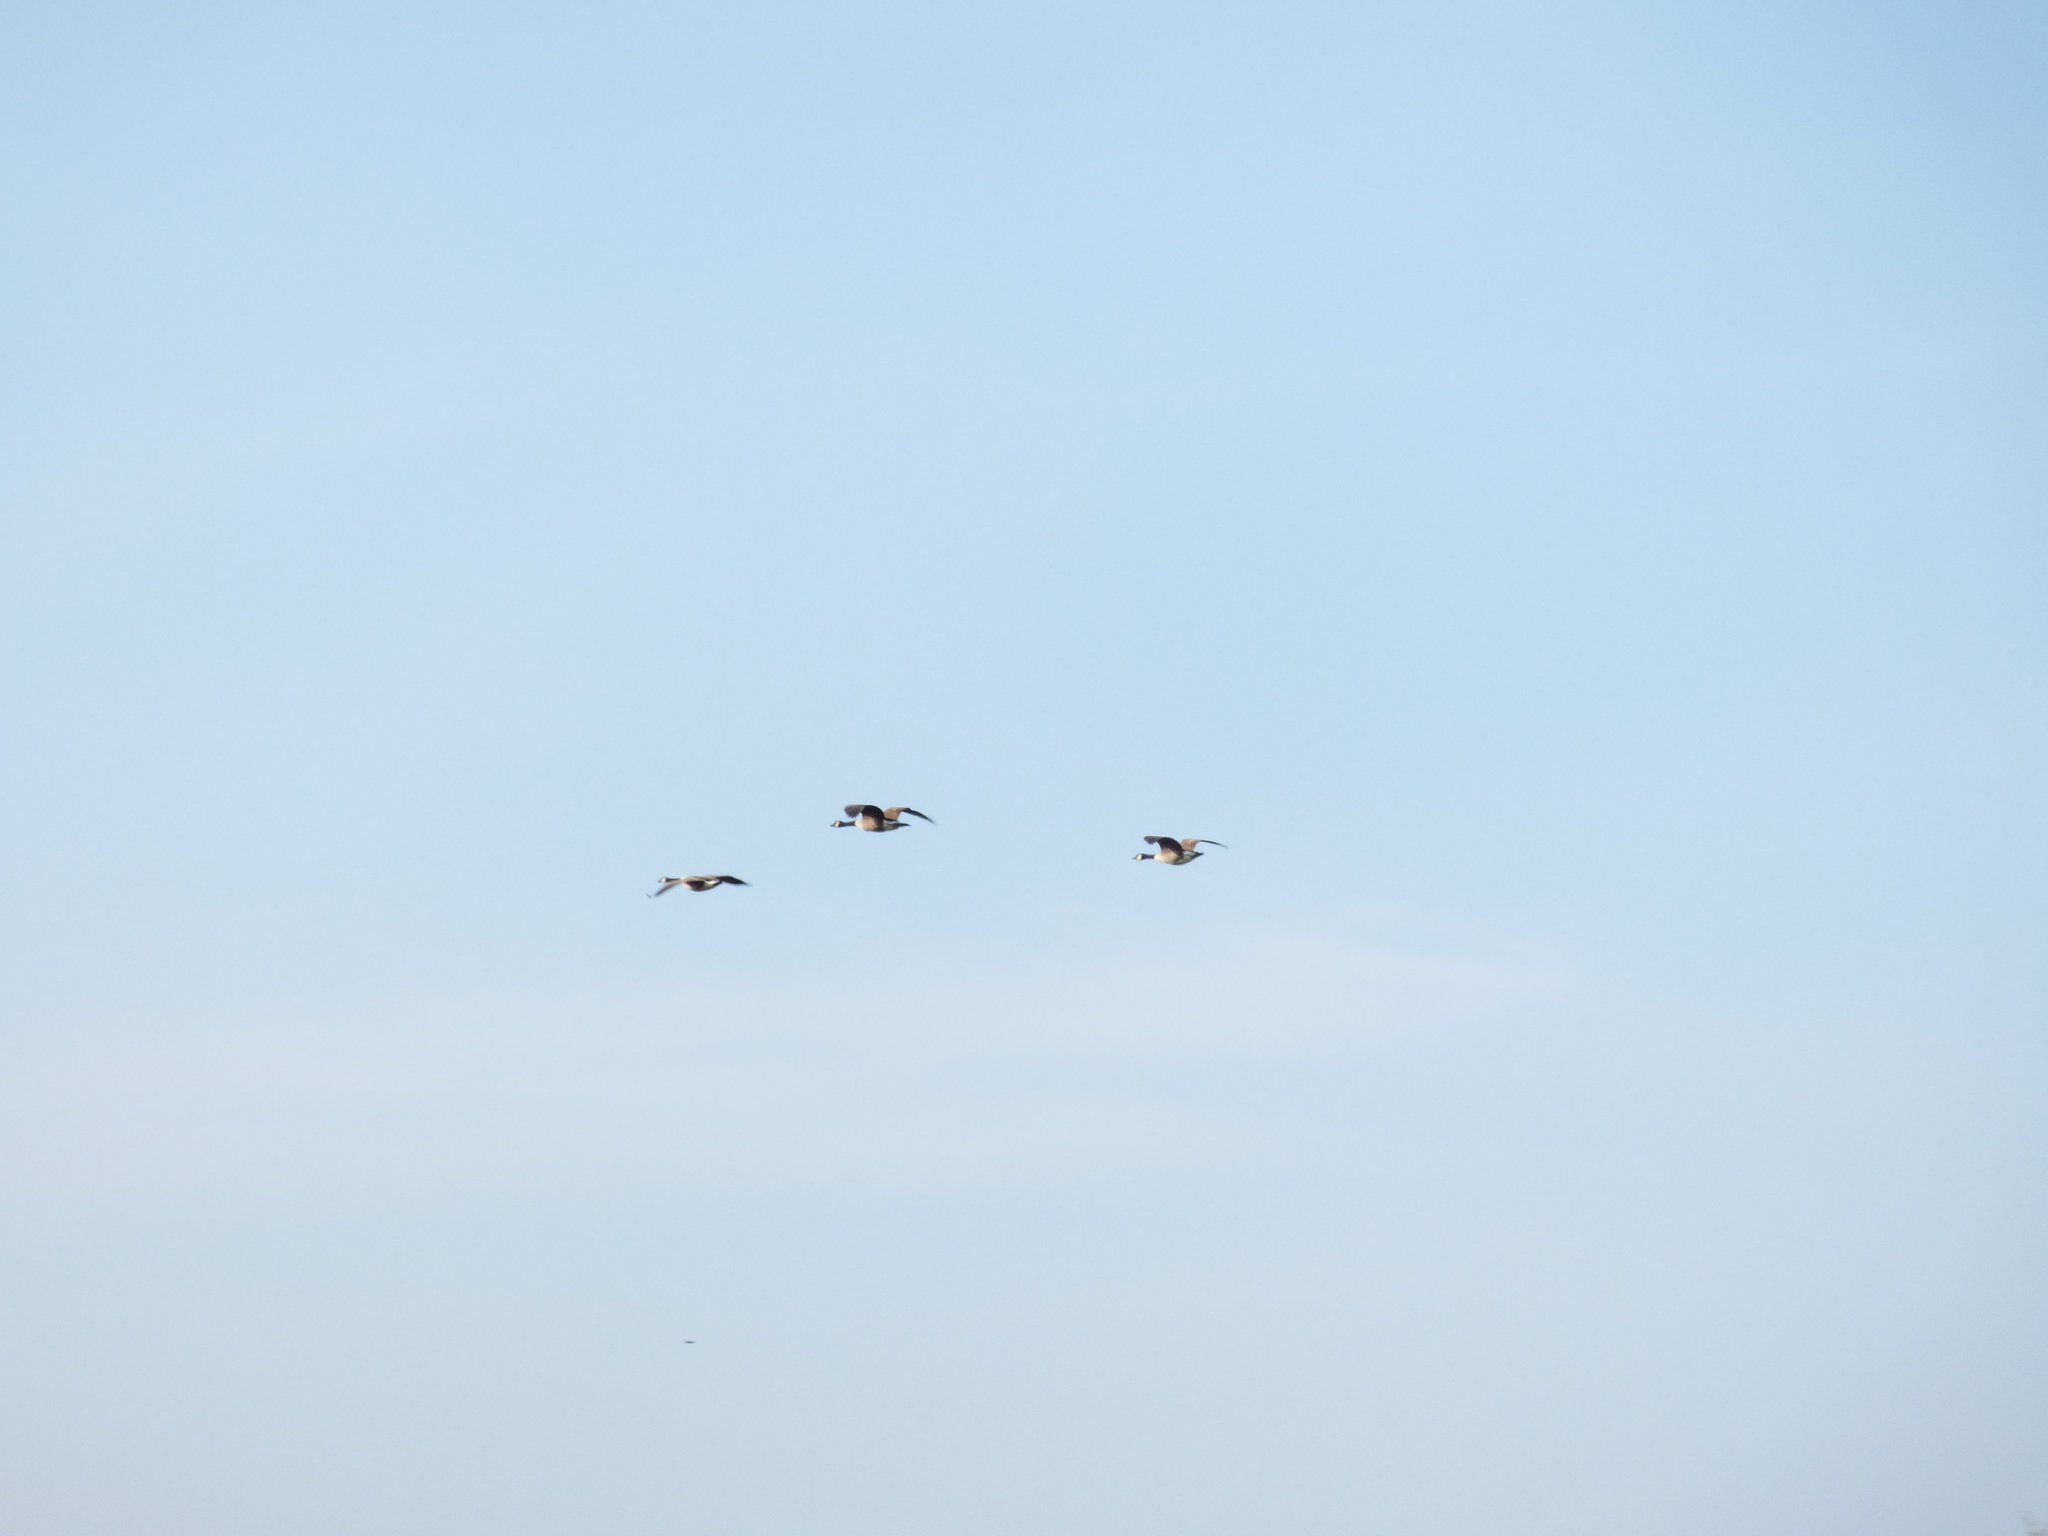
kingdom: Animalia
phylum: Chordata
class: Aves
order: Anseriformes
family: Anatidae
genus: Branta
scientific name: Branta canadensis
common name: Canada goose
